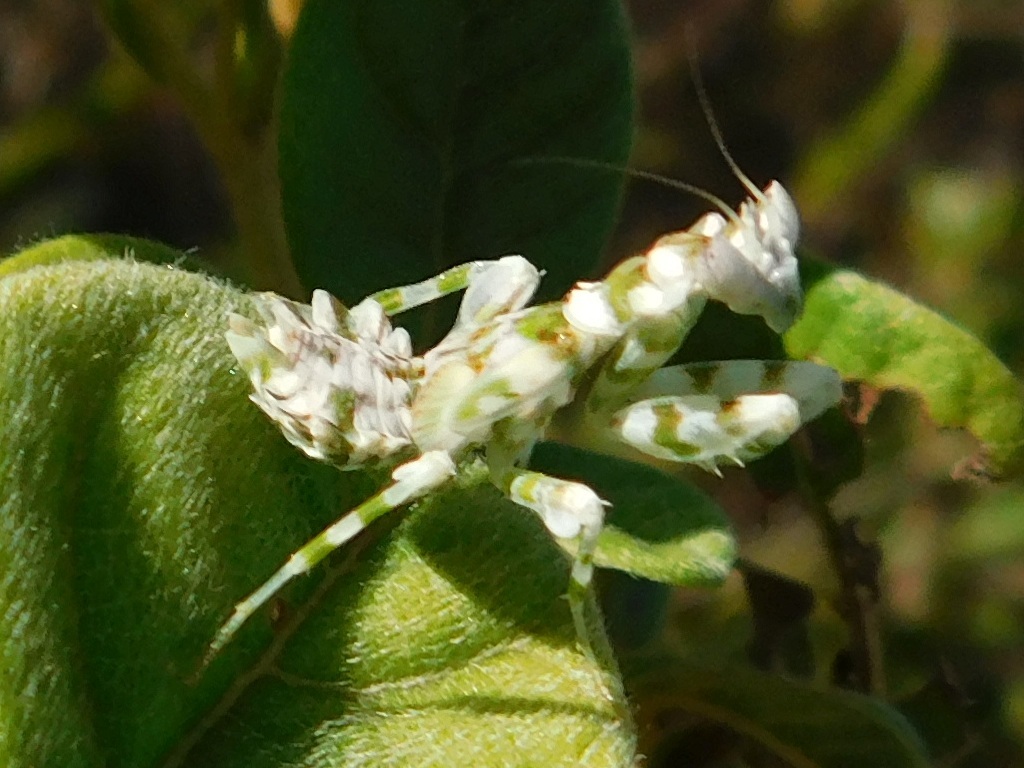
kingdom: Animalia
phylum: Arthropoda
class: Insecta
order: Mantodea
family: Galinthiadidae
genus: Harpagomantis
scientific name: Harpagomantis tricolor
